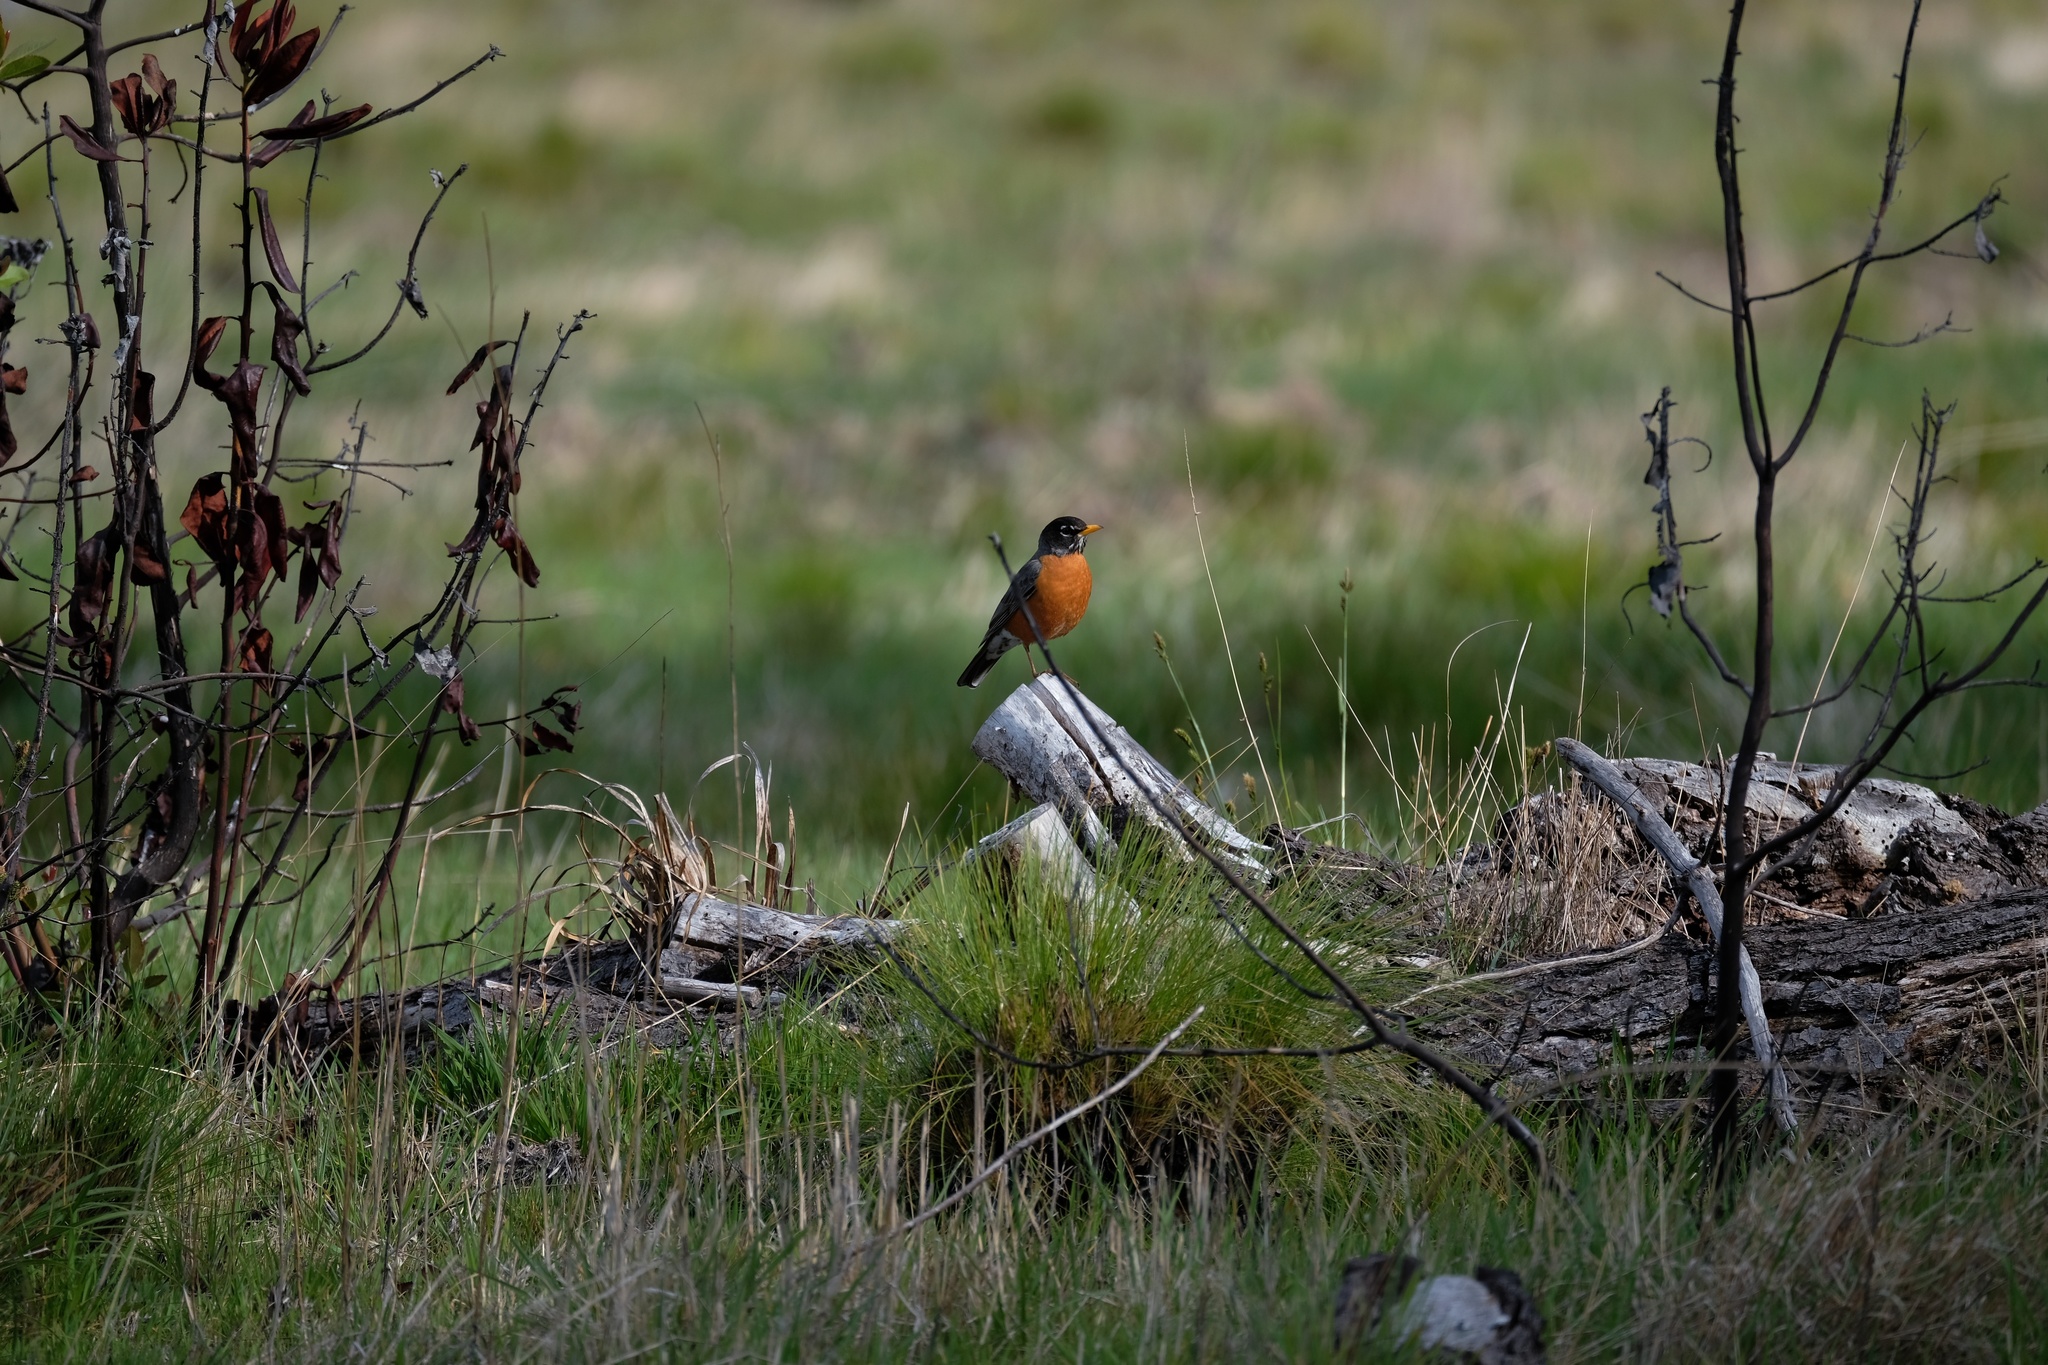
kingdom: Animalia
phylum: Chordata
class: Aves
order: Passeriformes
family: Turdidae
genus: Turdus
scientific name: Turdus migratorius
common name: American robin
